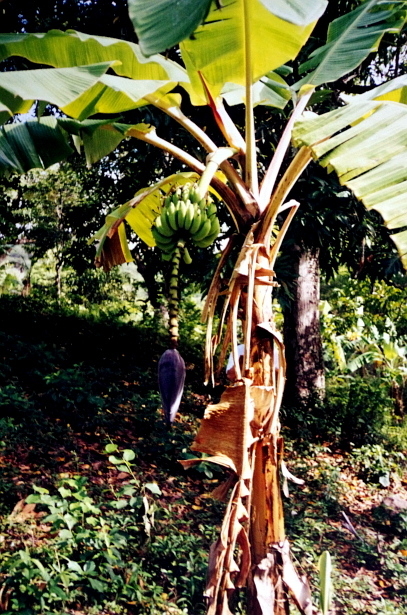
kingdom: Plantae
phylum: Tracheophyta
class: Liliopsida
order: Zingiberales
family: Musaceae
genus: Musa
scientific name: Musa paradisiaca
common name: French plantain
